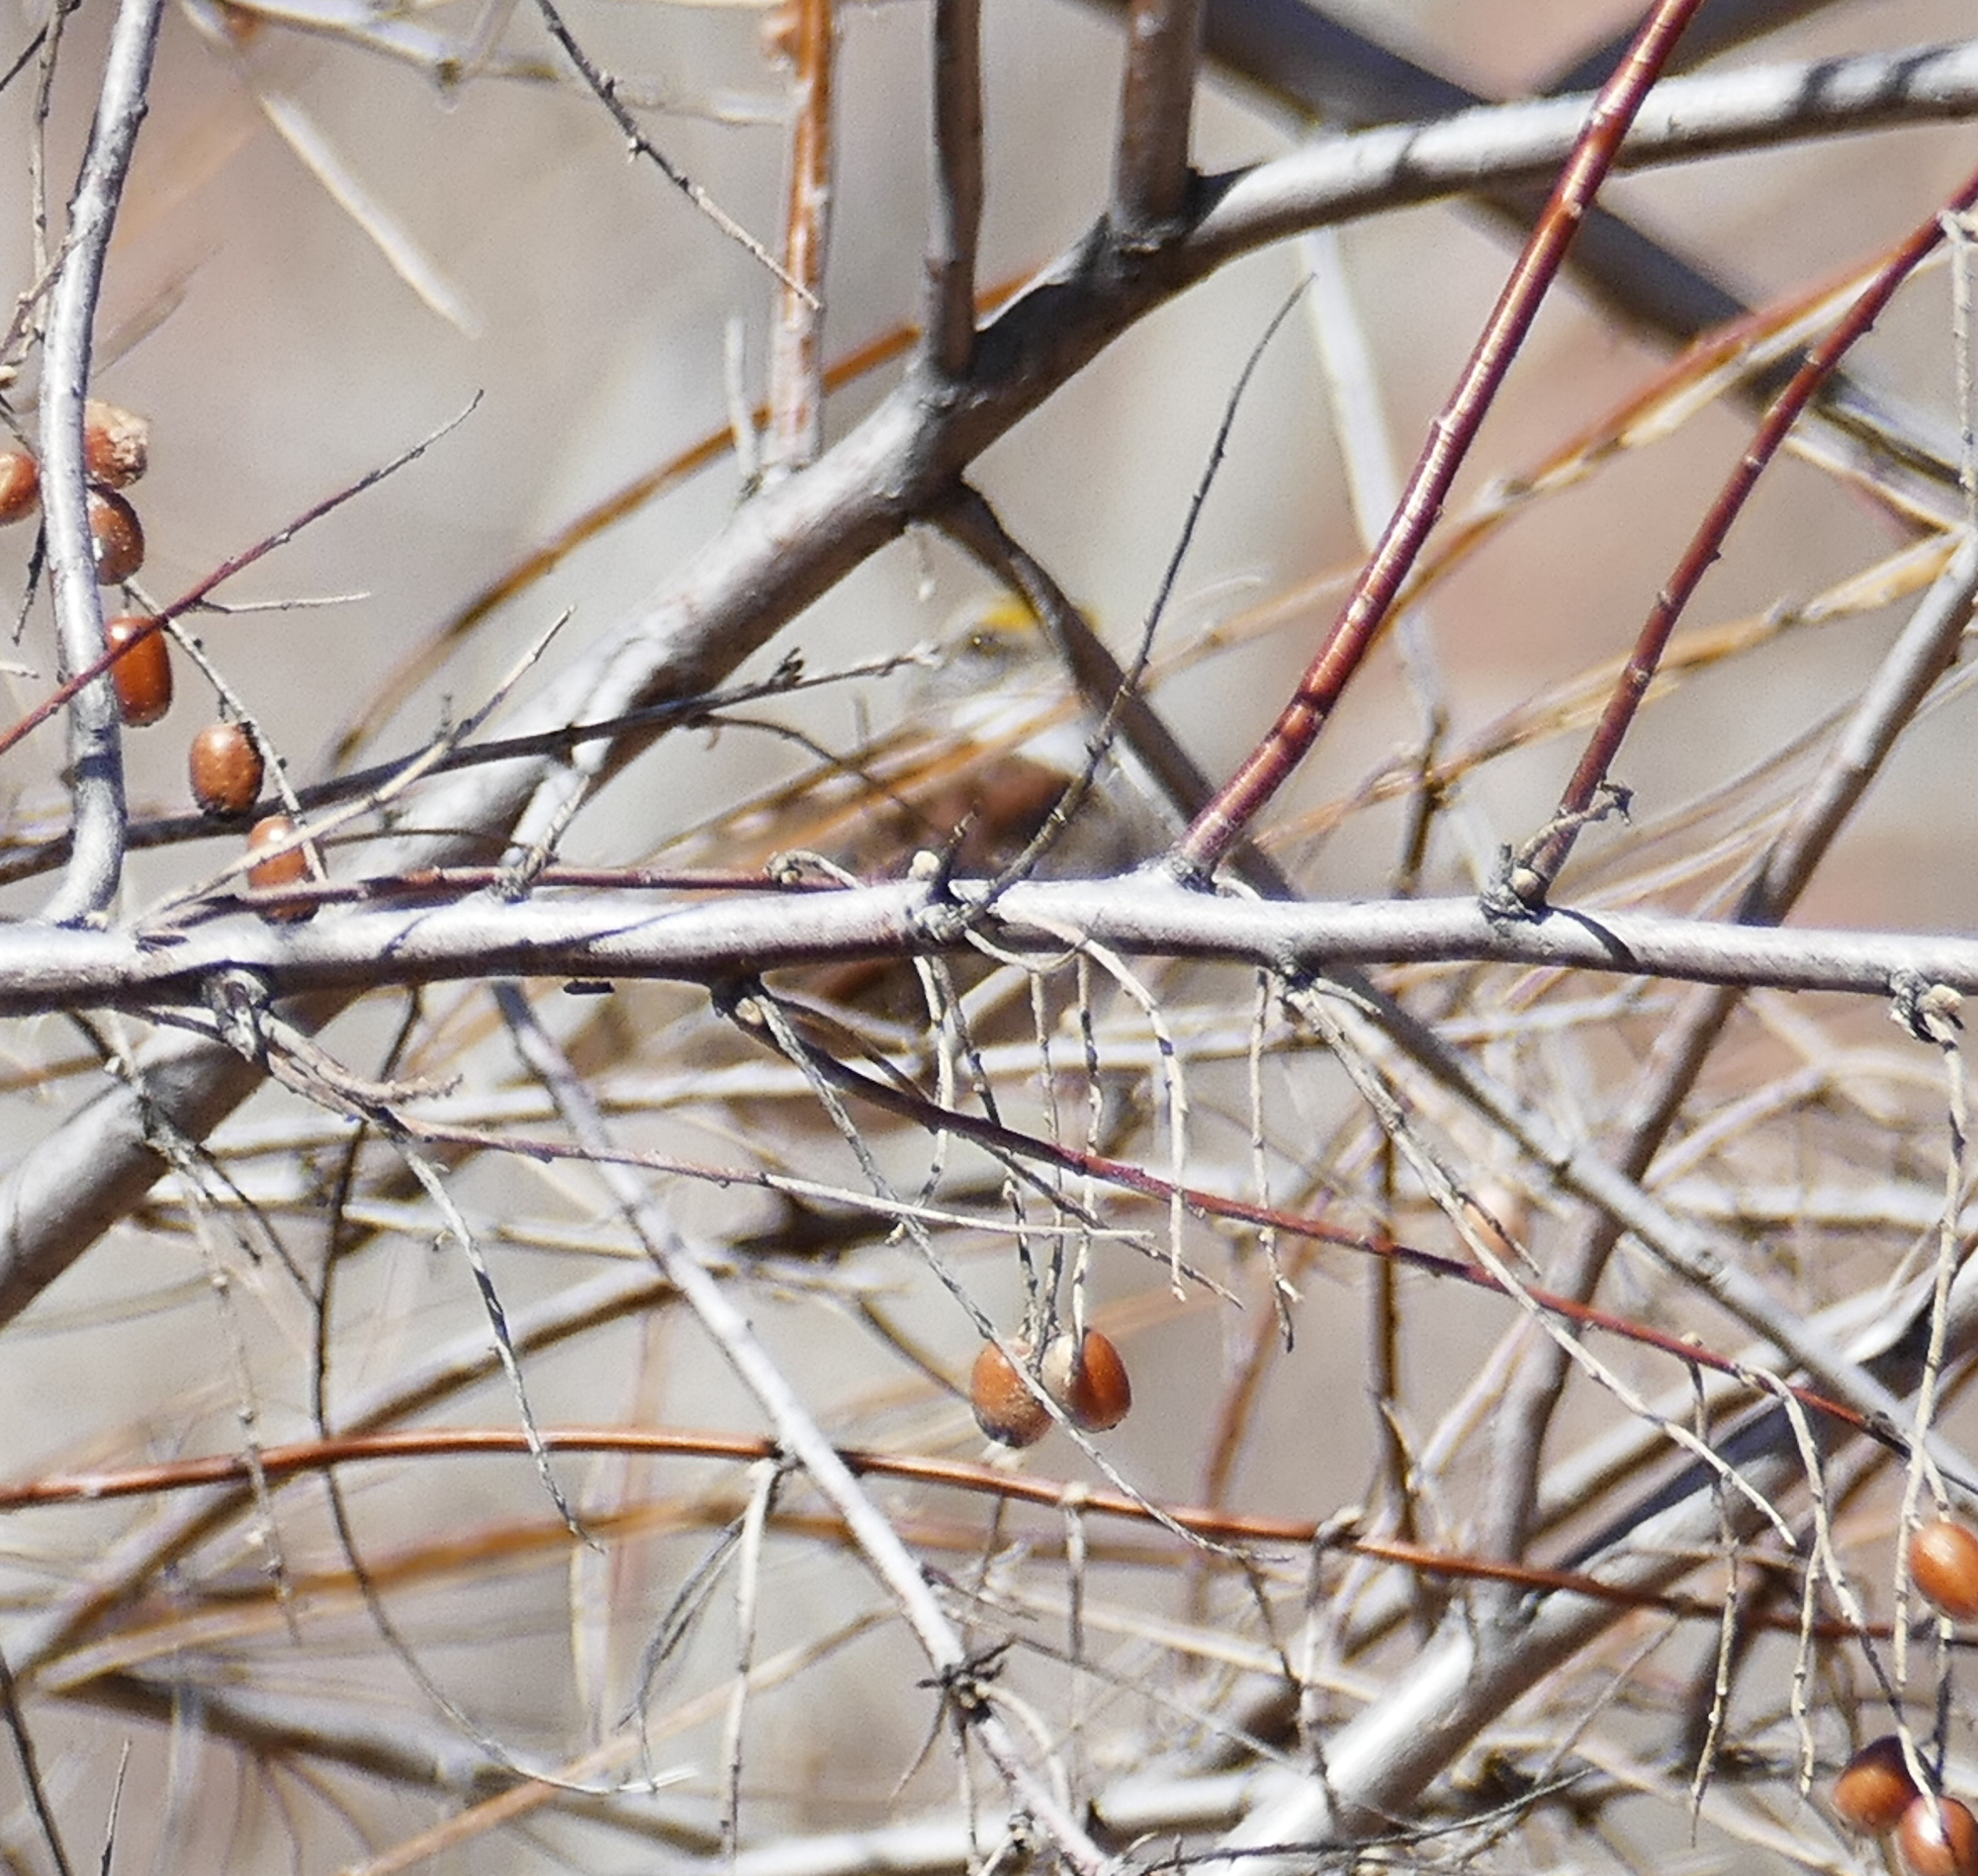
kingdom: Animalia
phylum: Chordata
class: Aves
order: Passeriformes
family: Passerellidae
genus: Zonotrichia
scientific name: Zonotrichia albicollis
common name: White-throated sparrow
